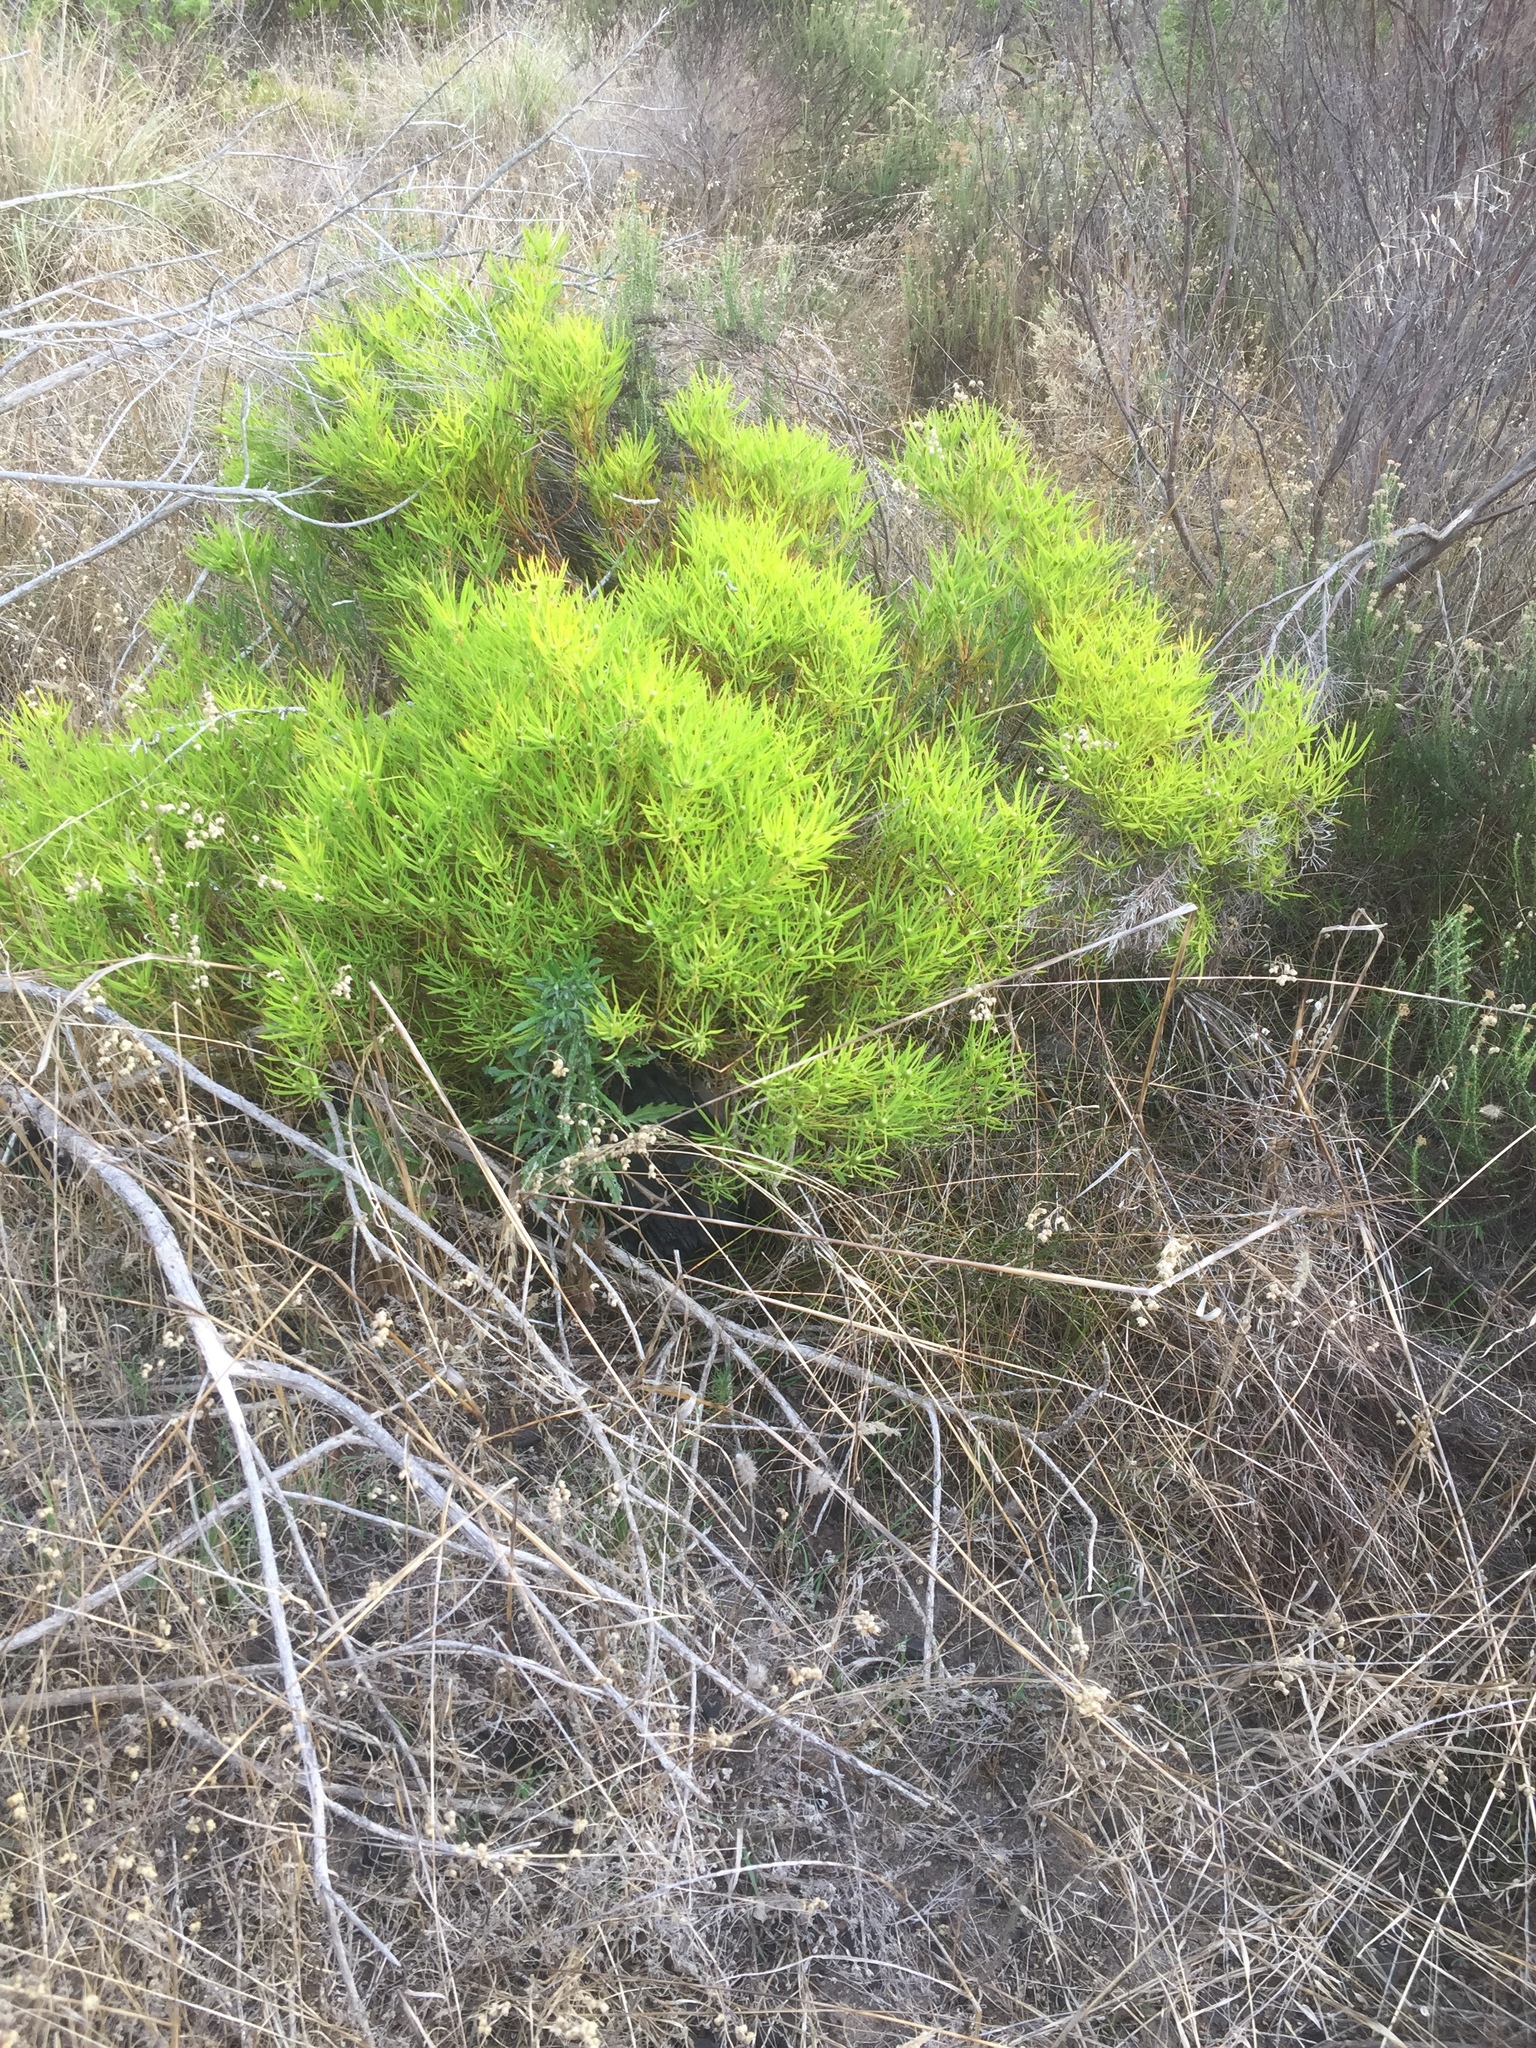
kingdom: Plantae
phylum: Tracheophyta
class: Magnoliopsida
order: Proteales
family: Proteaceae
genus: Leucadendron
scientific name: Leucadendron salignum
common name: Common sunshine conebush
